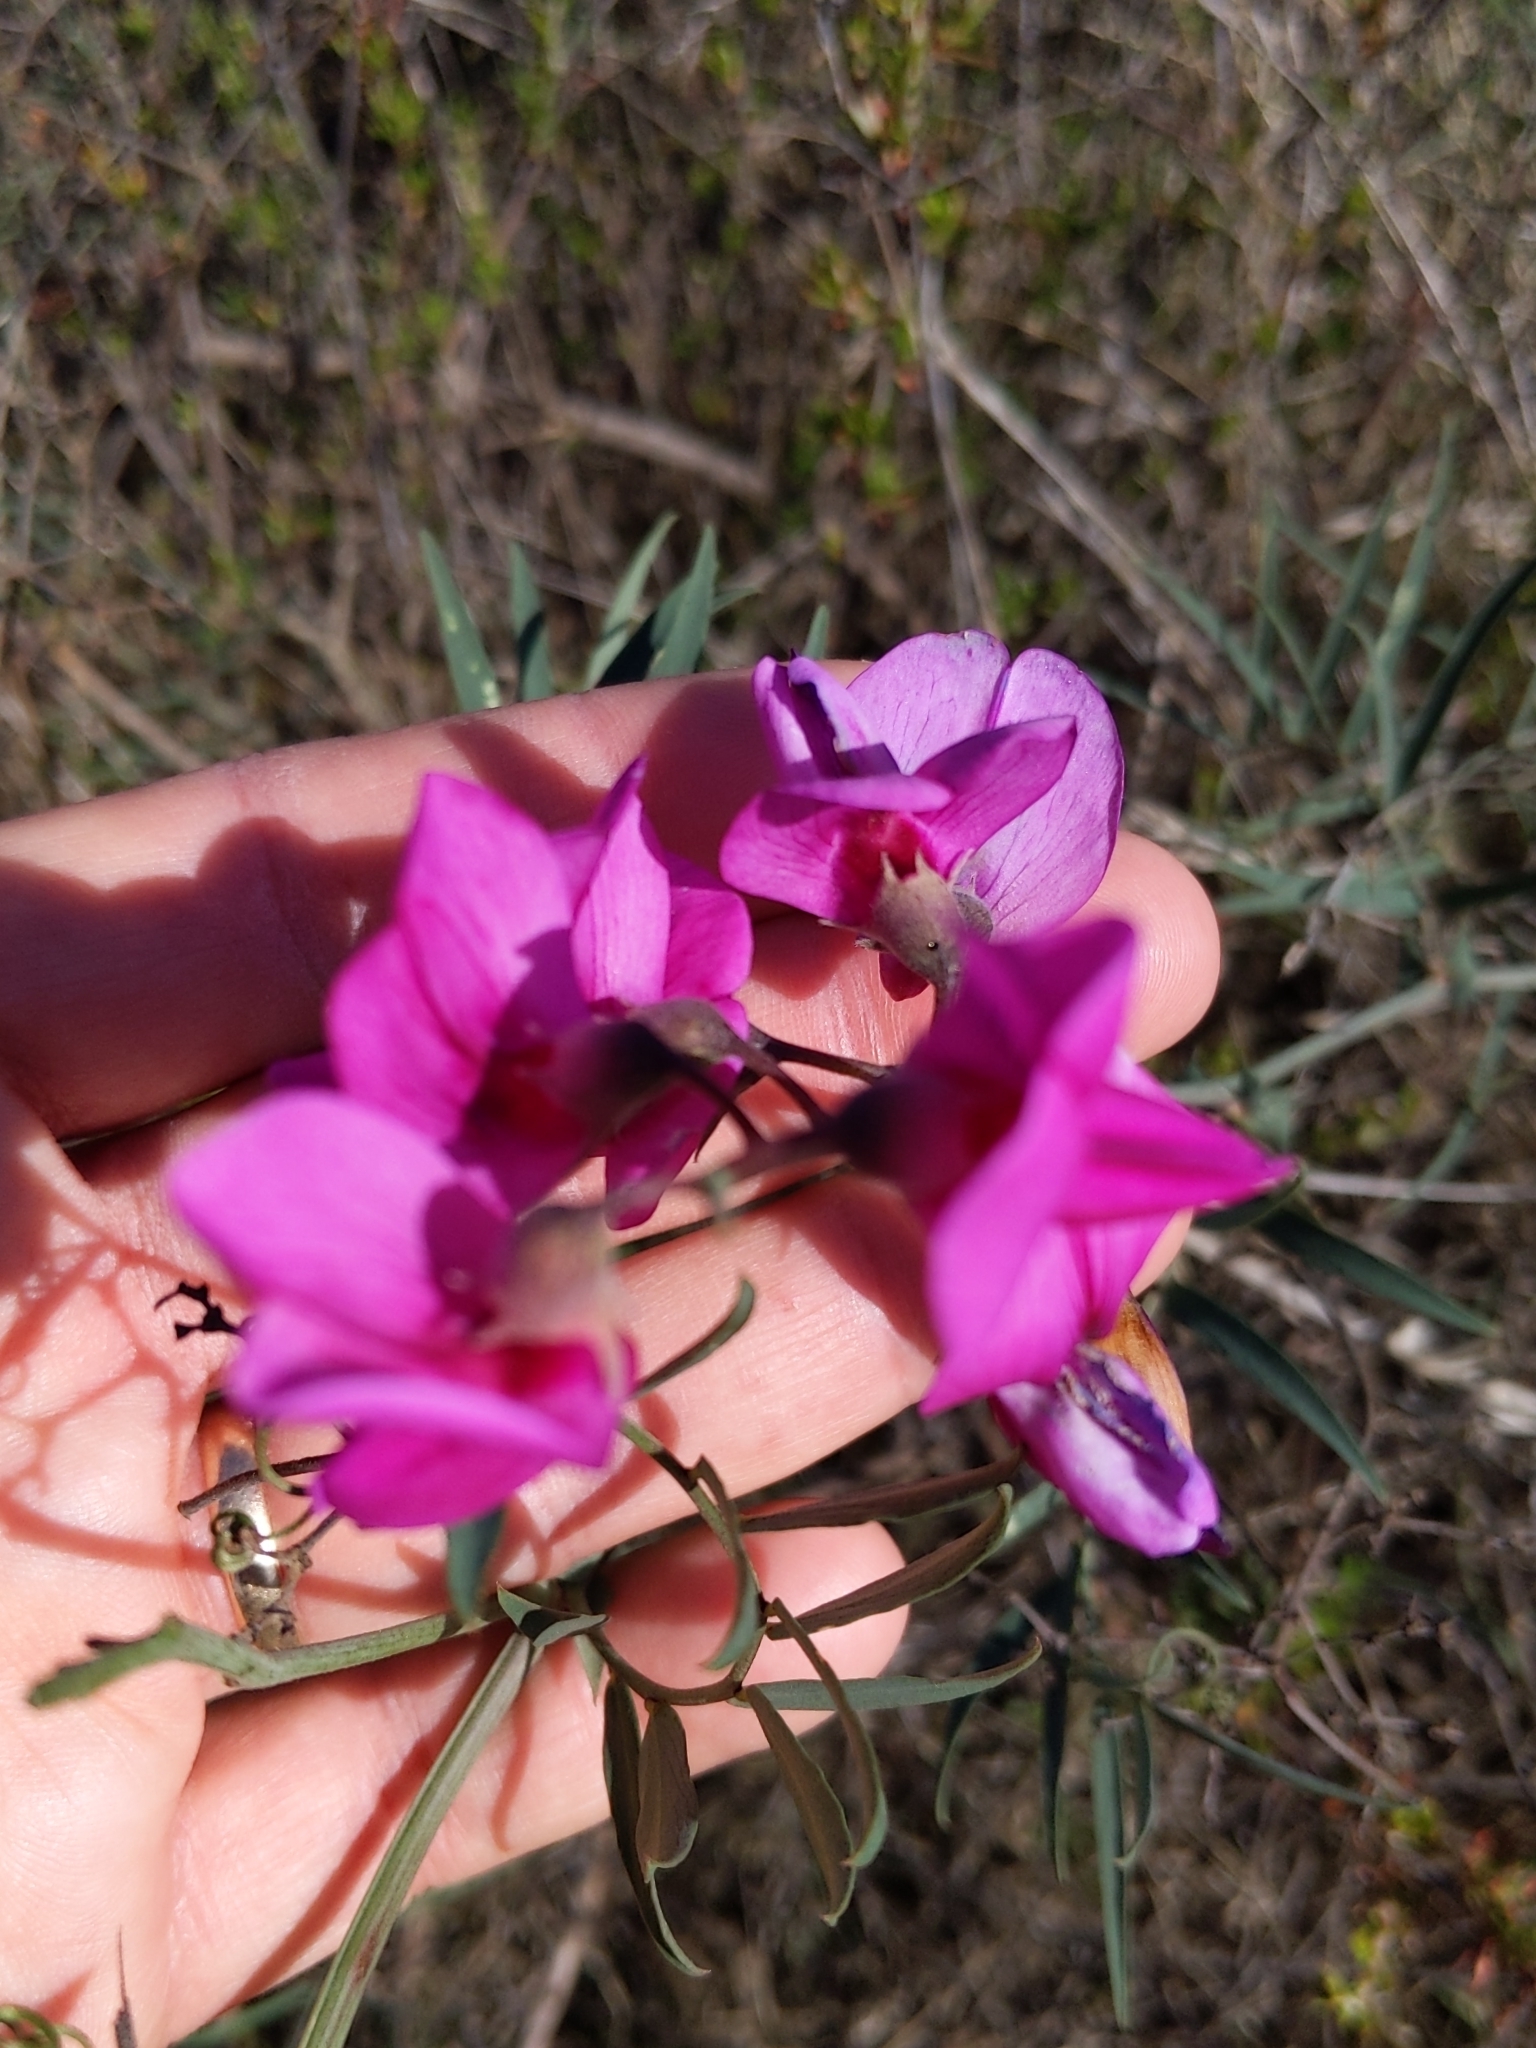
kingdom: Plantae
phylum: Tracheophyta
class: Magnoliopsida
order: Fabales
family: Fabaceae
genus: Lathyrus
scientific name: Lathyrus vestitus
